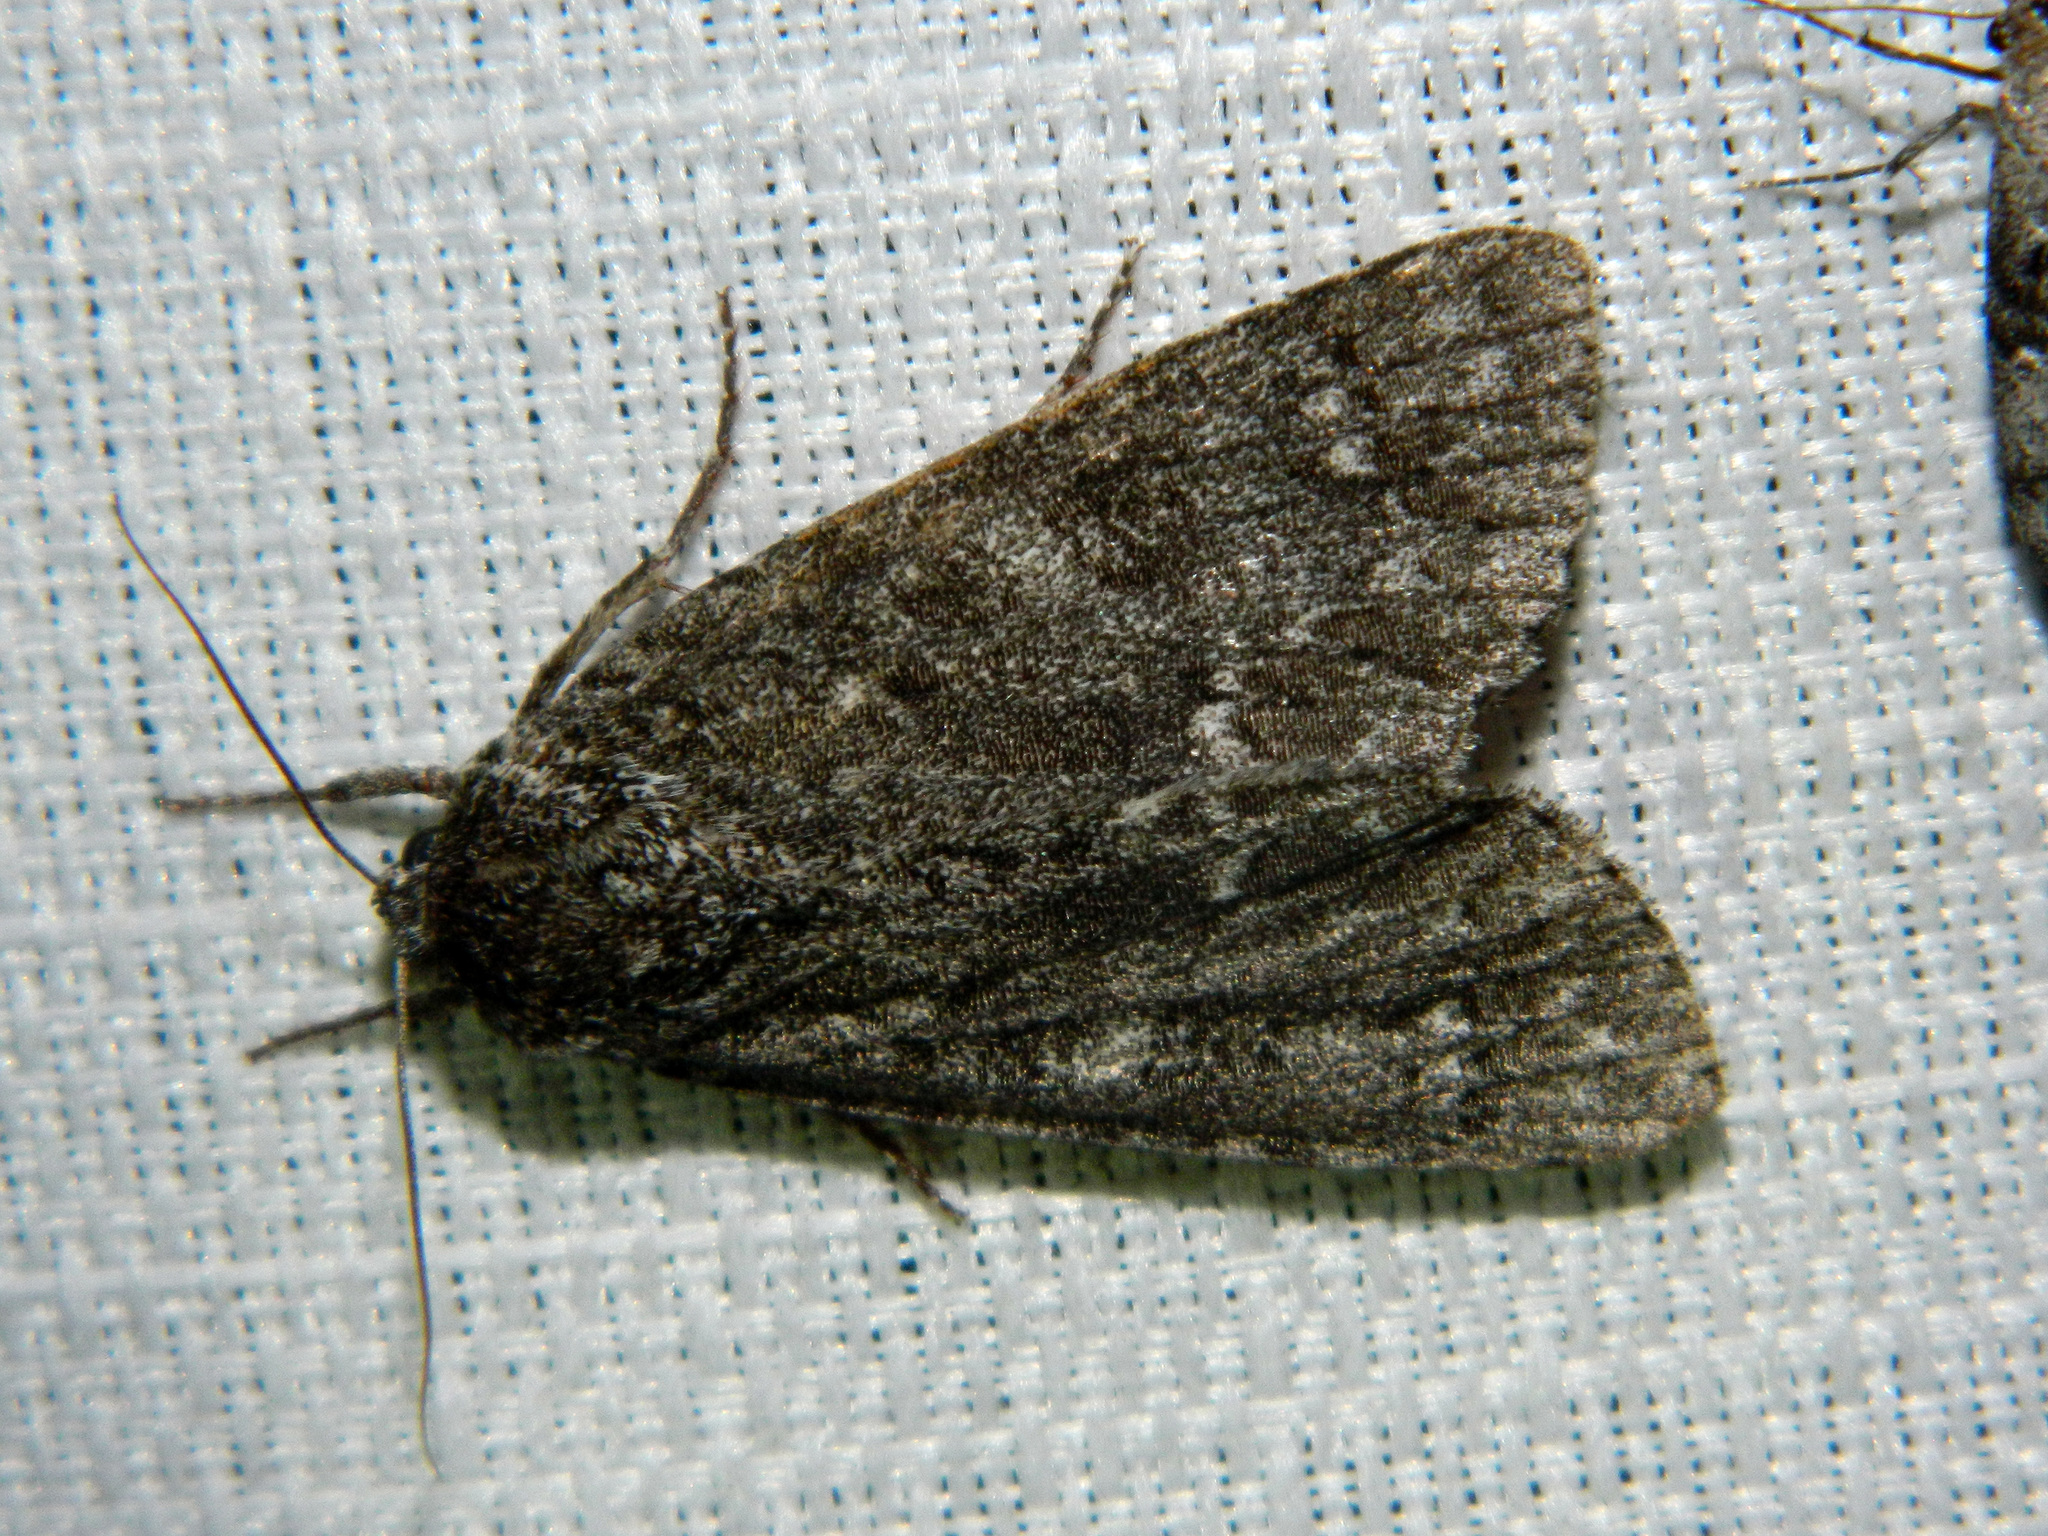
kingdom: Animalia
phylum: Arthropoda
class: Insecta
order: Lepidoptera
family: Noctuidae
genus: Acronicta
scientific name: Acronicta impleta
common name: Powdered dagger
